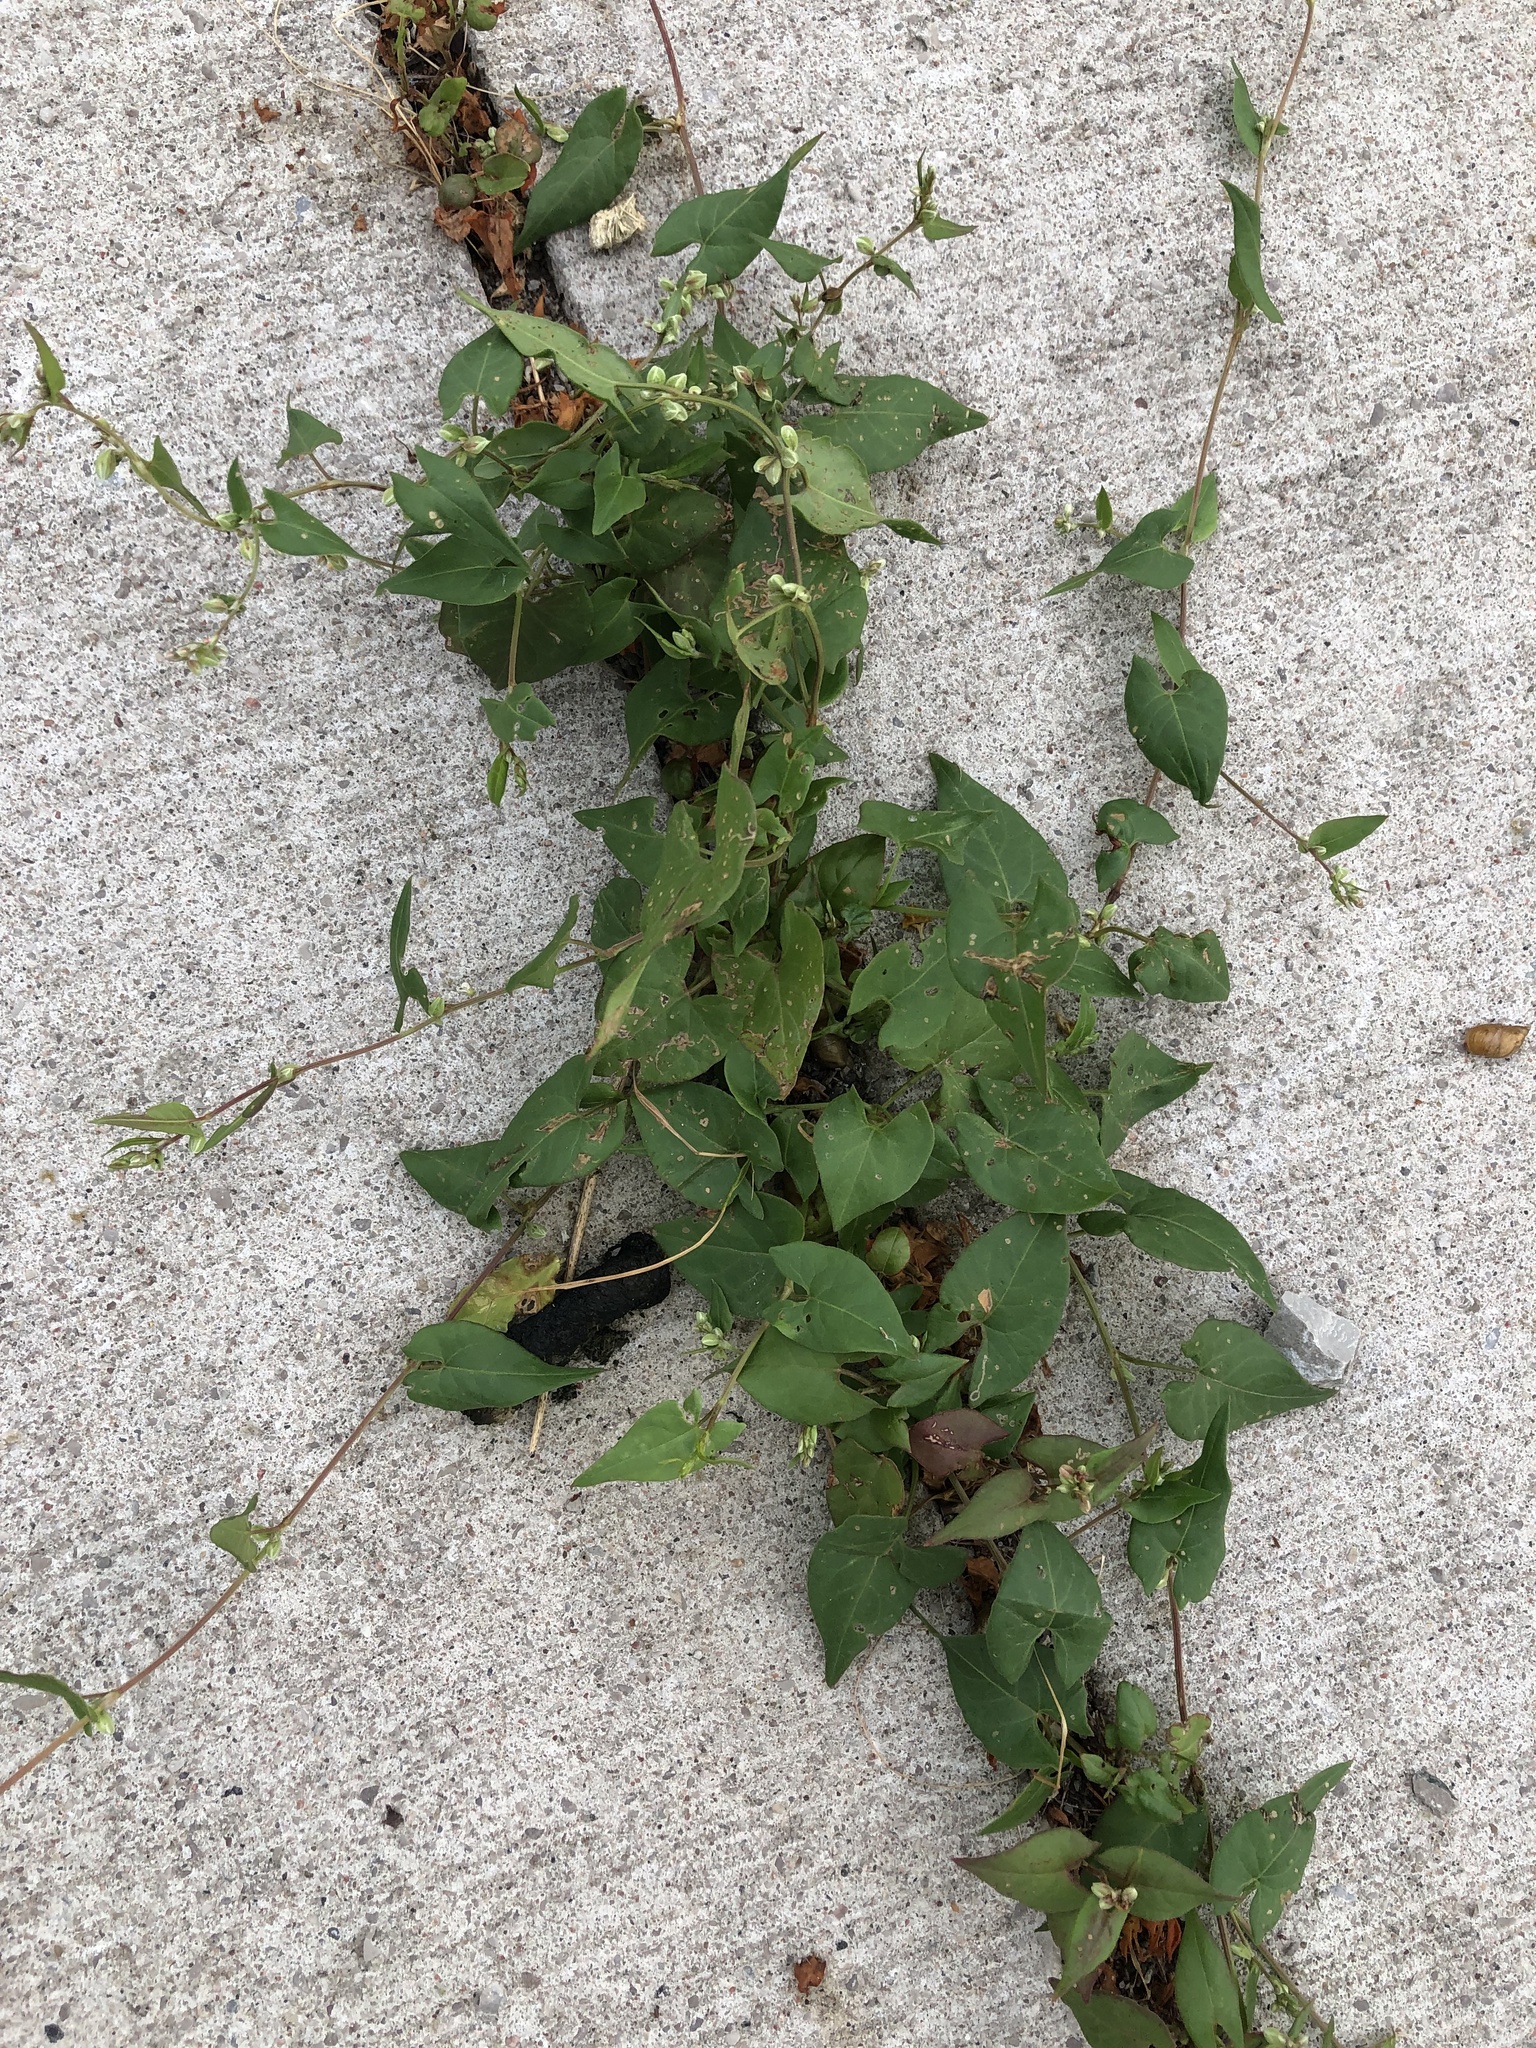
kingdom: Plantae
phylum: Tracheophyta
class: Magnoliopsida
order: Caryophyllales
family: Polygonaceae
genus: Fallopia
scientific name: Fallopia convolvulus
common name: Black bindweed
